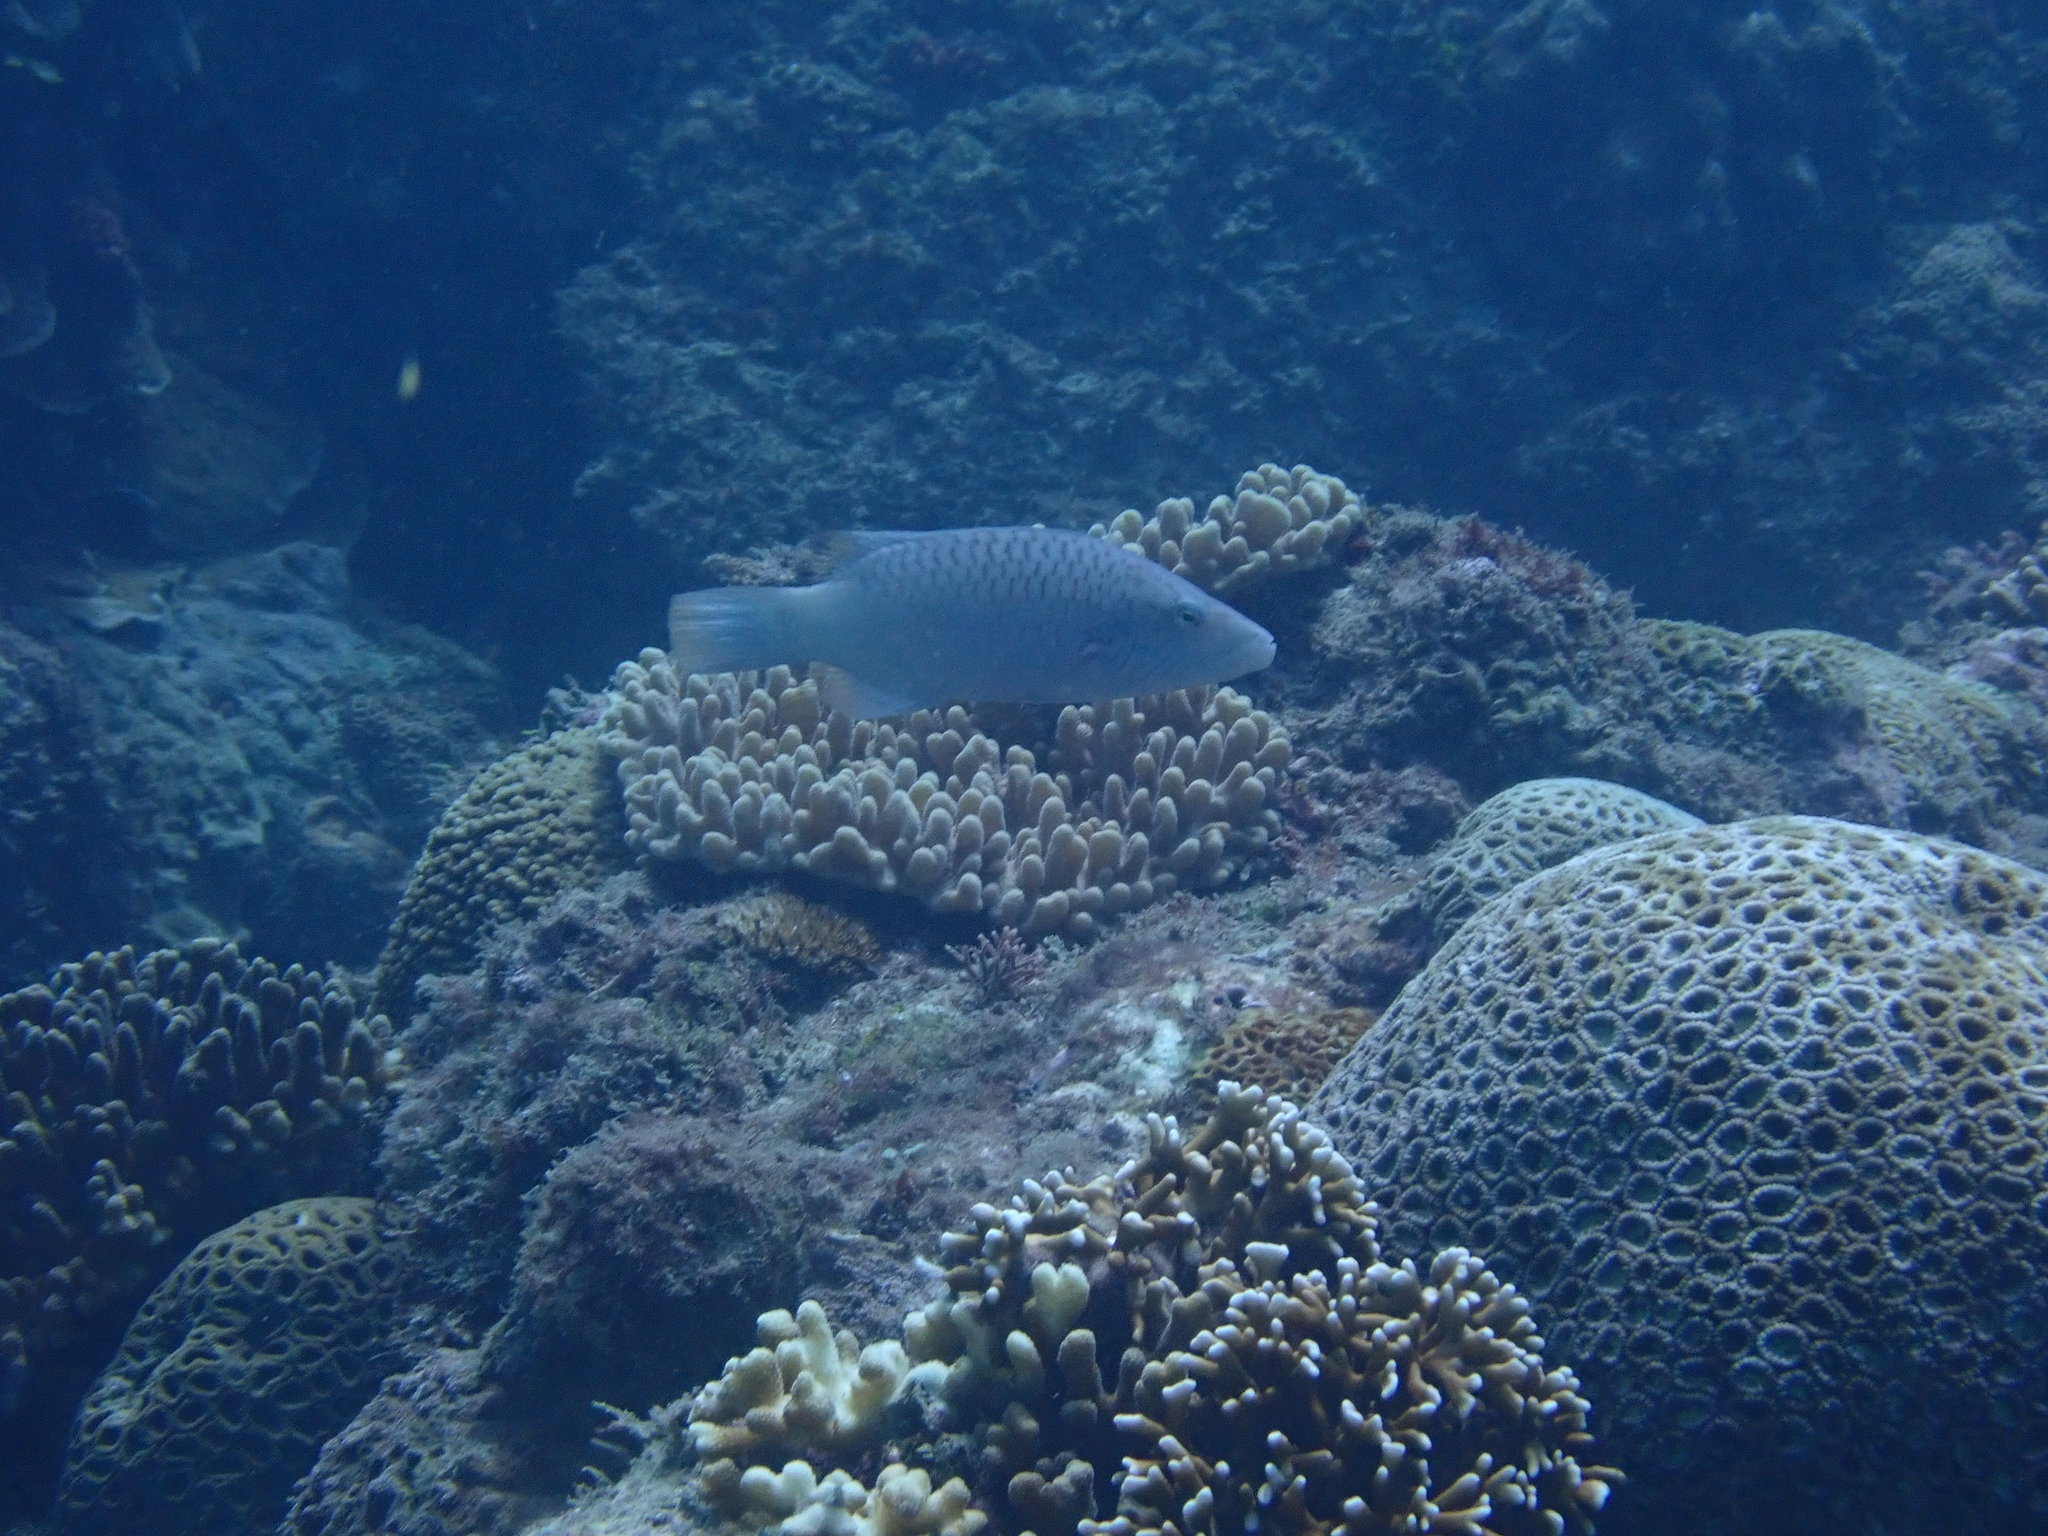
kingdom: Animalia
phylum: Chordata
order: Perciformes
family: Labridae
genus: Oxycheilinus
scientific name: Oxycheilinus digramma
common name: Bandcheek wrasse
